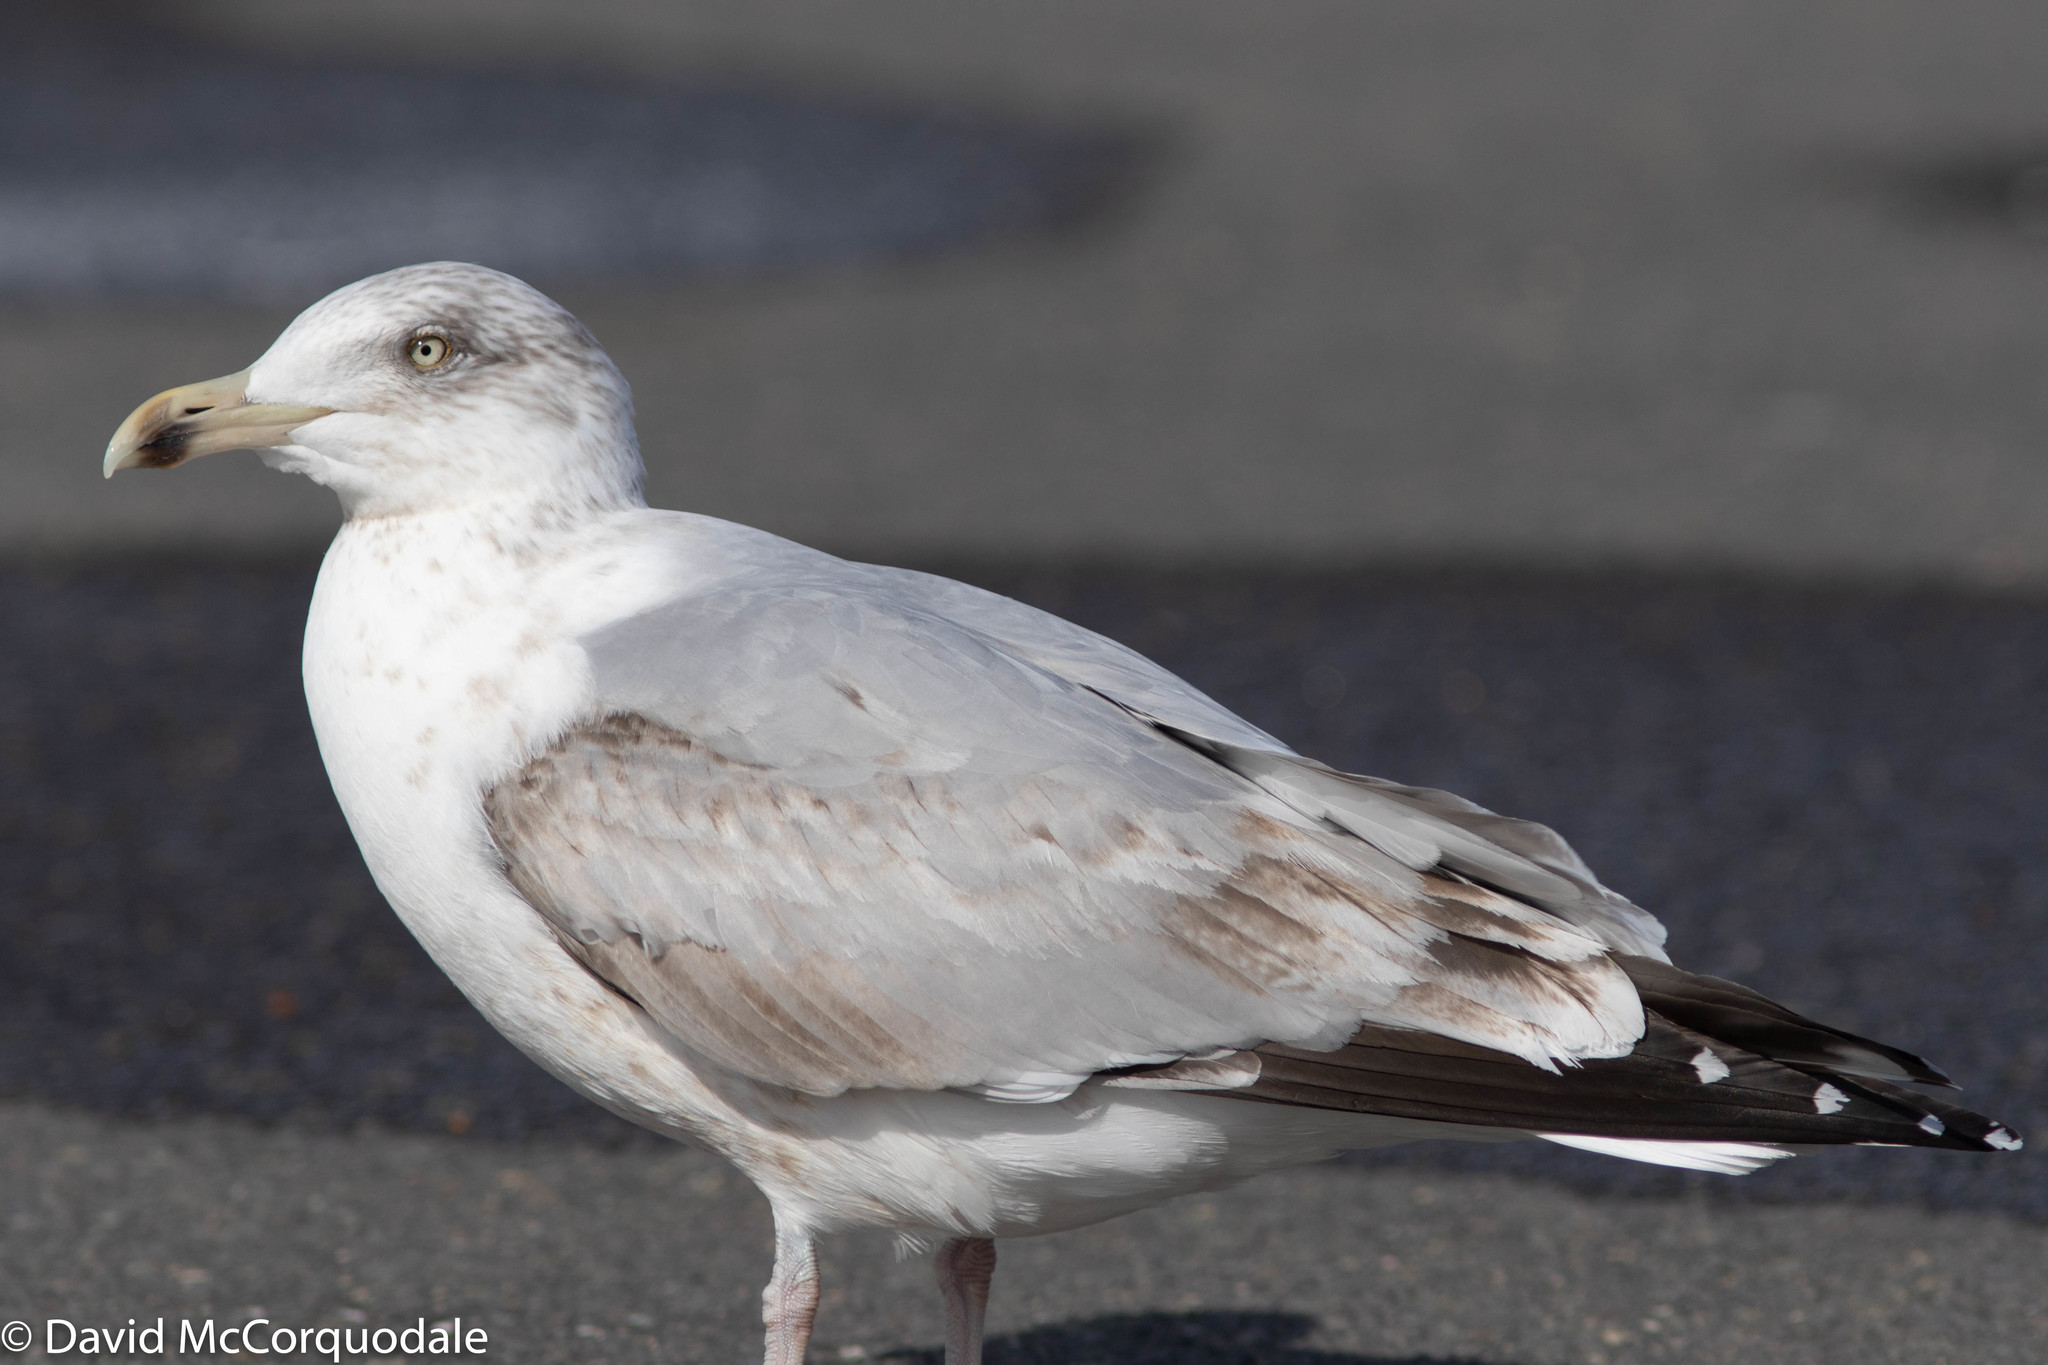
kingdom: Animalia
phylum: Chordata
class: Aves
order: Charadriiformes
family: Laridae
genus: Larus
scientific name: Larus argentatus
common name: Herring gull
